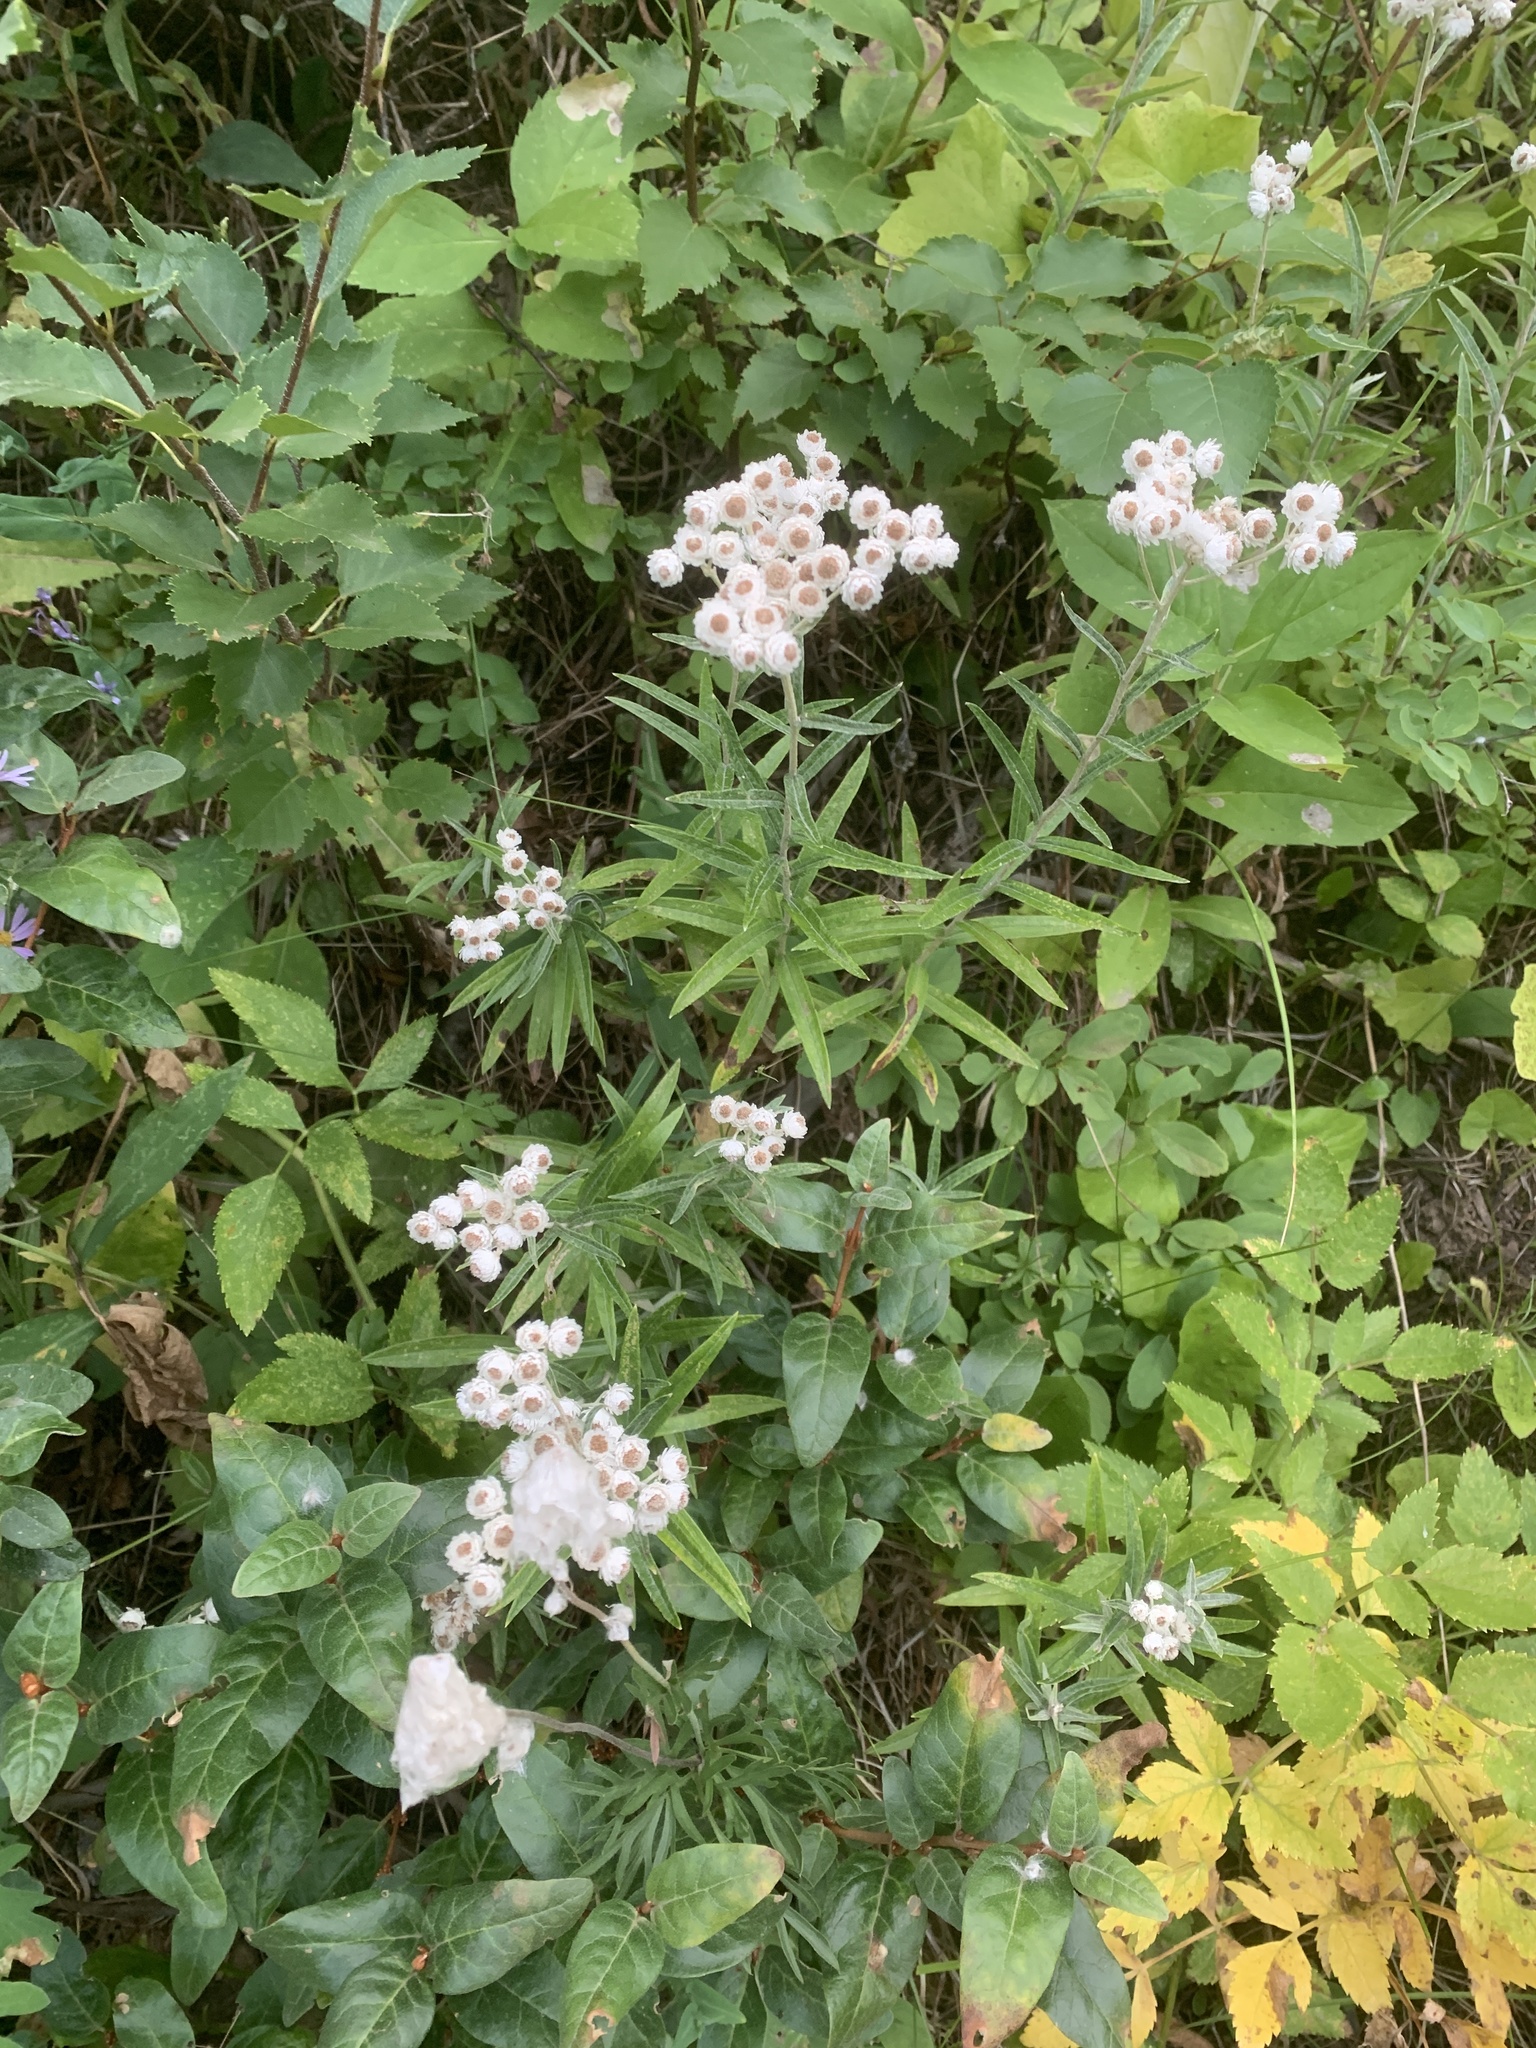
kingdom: Plantae
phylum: Tracheophyta
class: Magnoliopsida
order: Asterales
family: Asteraceae
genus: Anaphalis
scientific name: Anaphalis margaritacea
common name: Pearly everlasting
